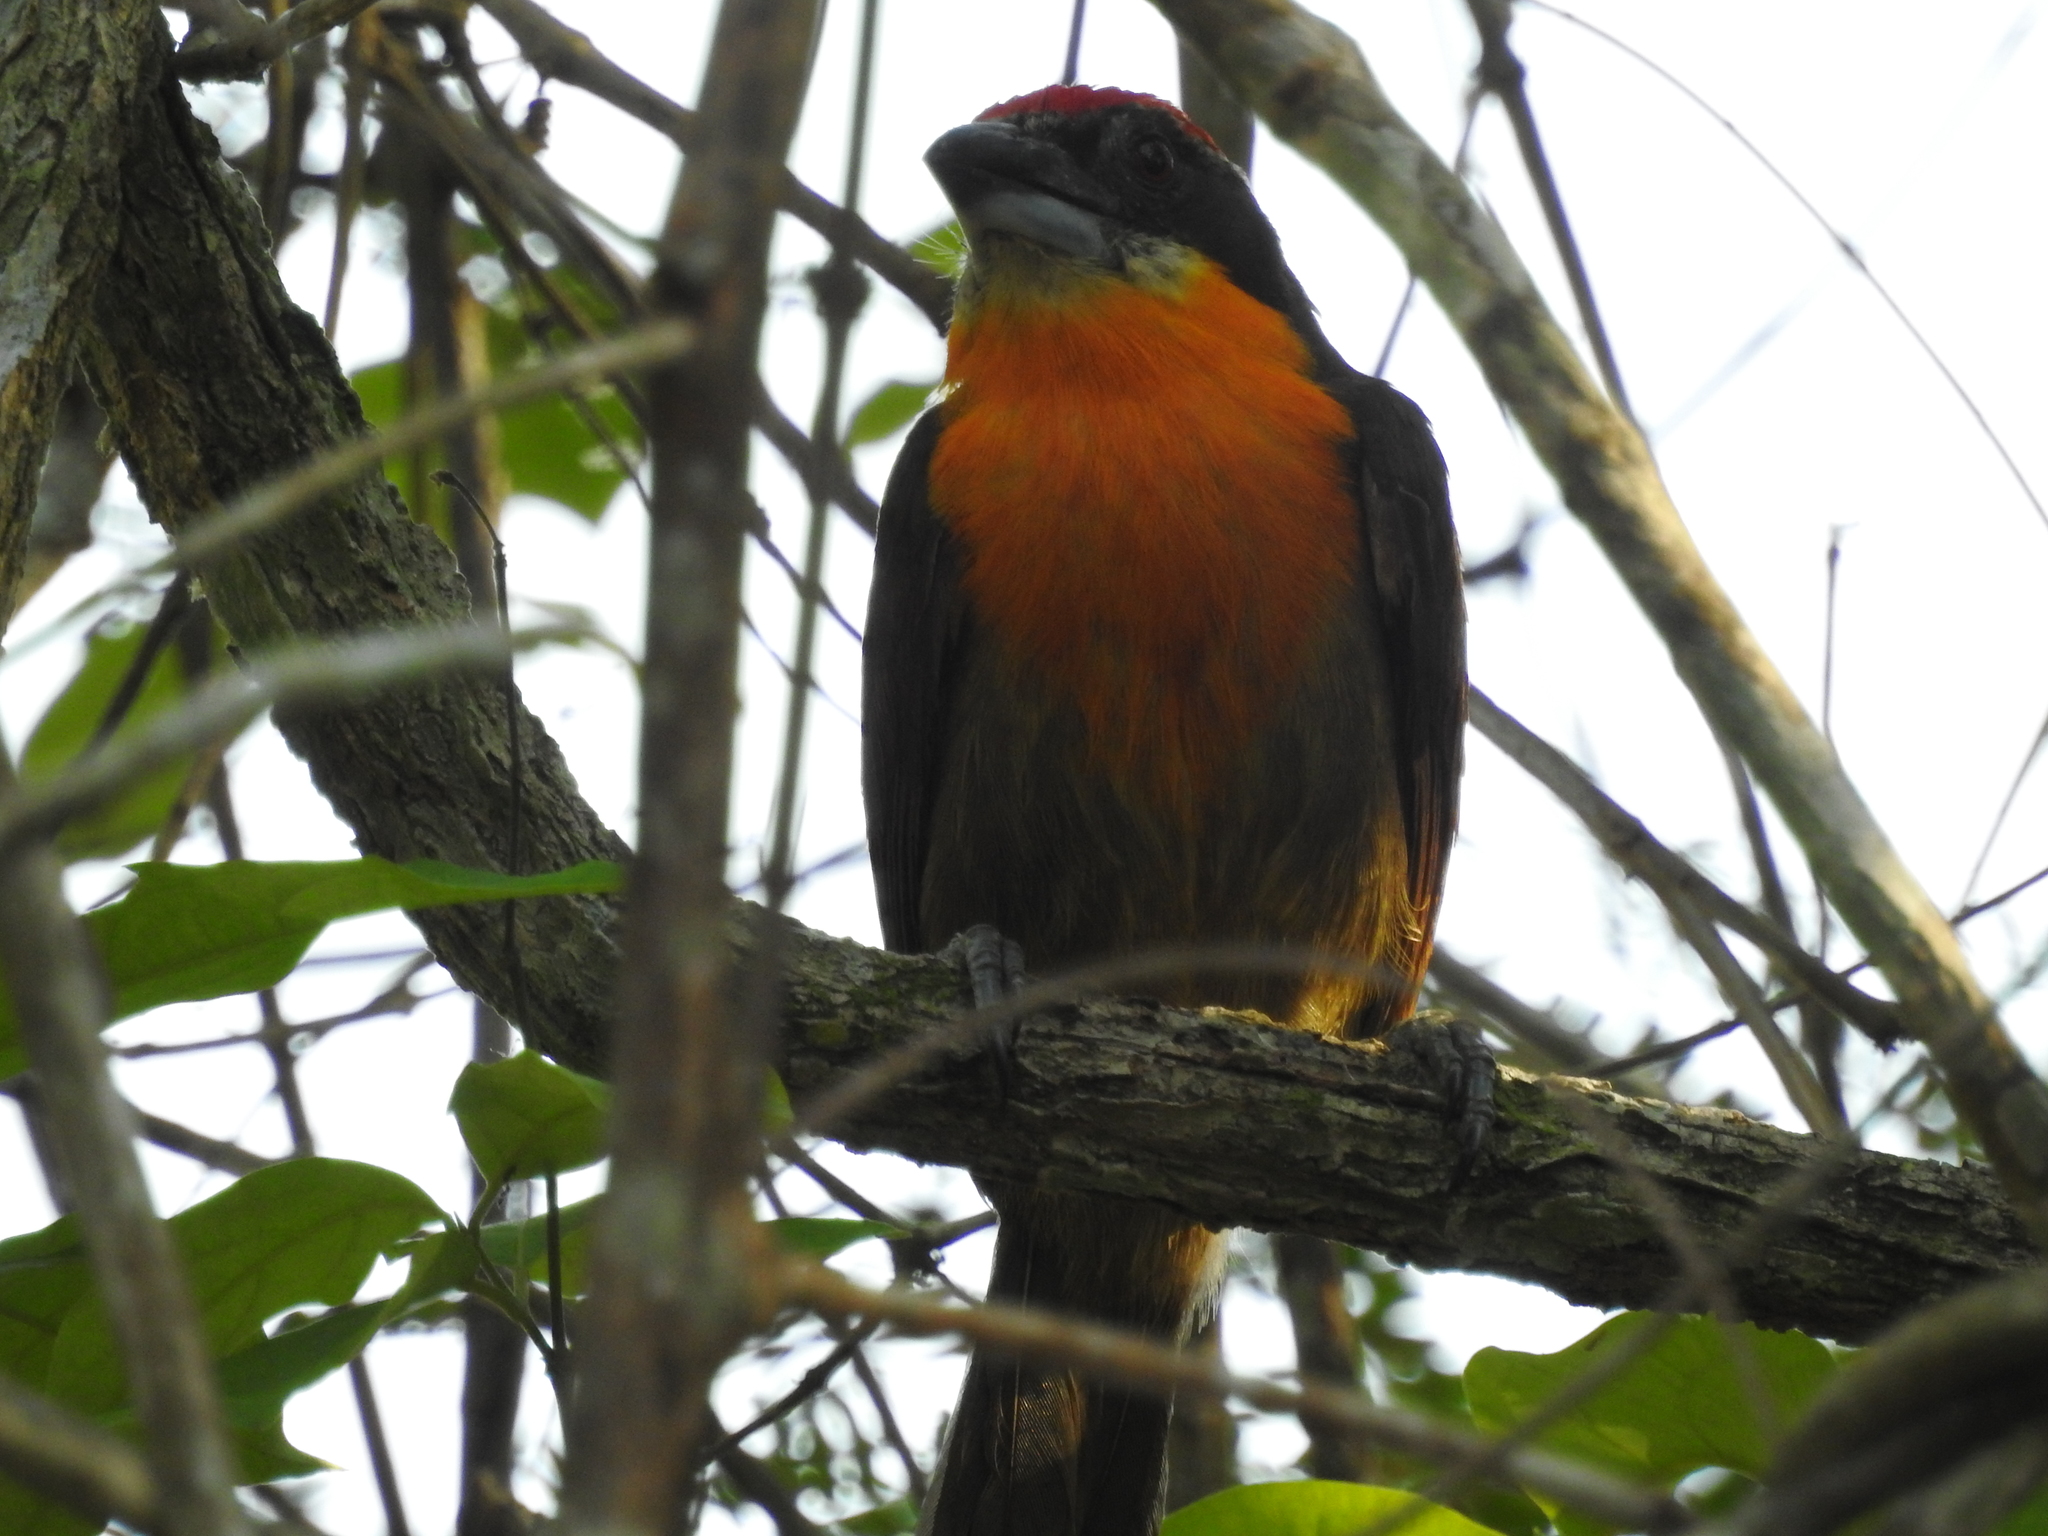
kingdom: Animalia
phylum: Chordata
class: Aves
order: Piciformes
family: Capitonidae
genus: Capito
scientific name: Capito aurovirens
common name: Scarlet-crowned barbet
